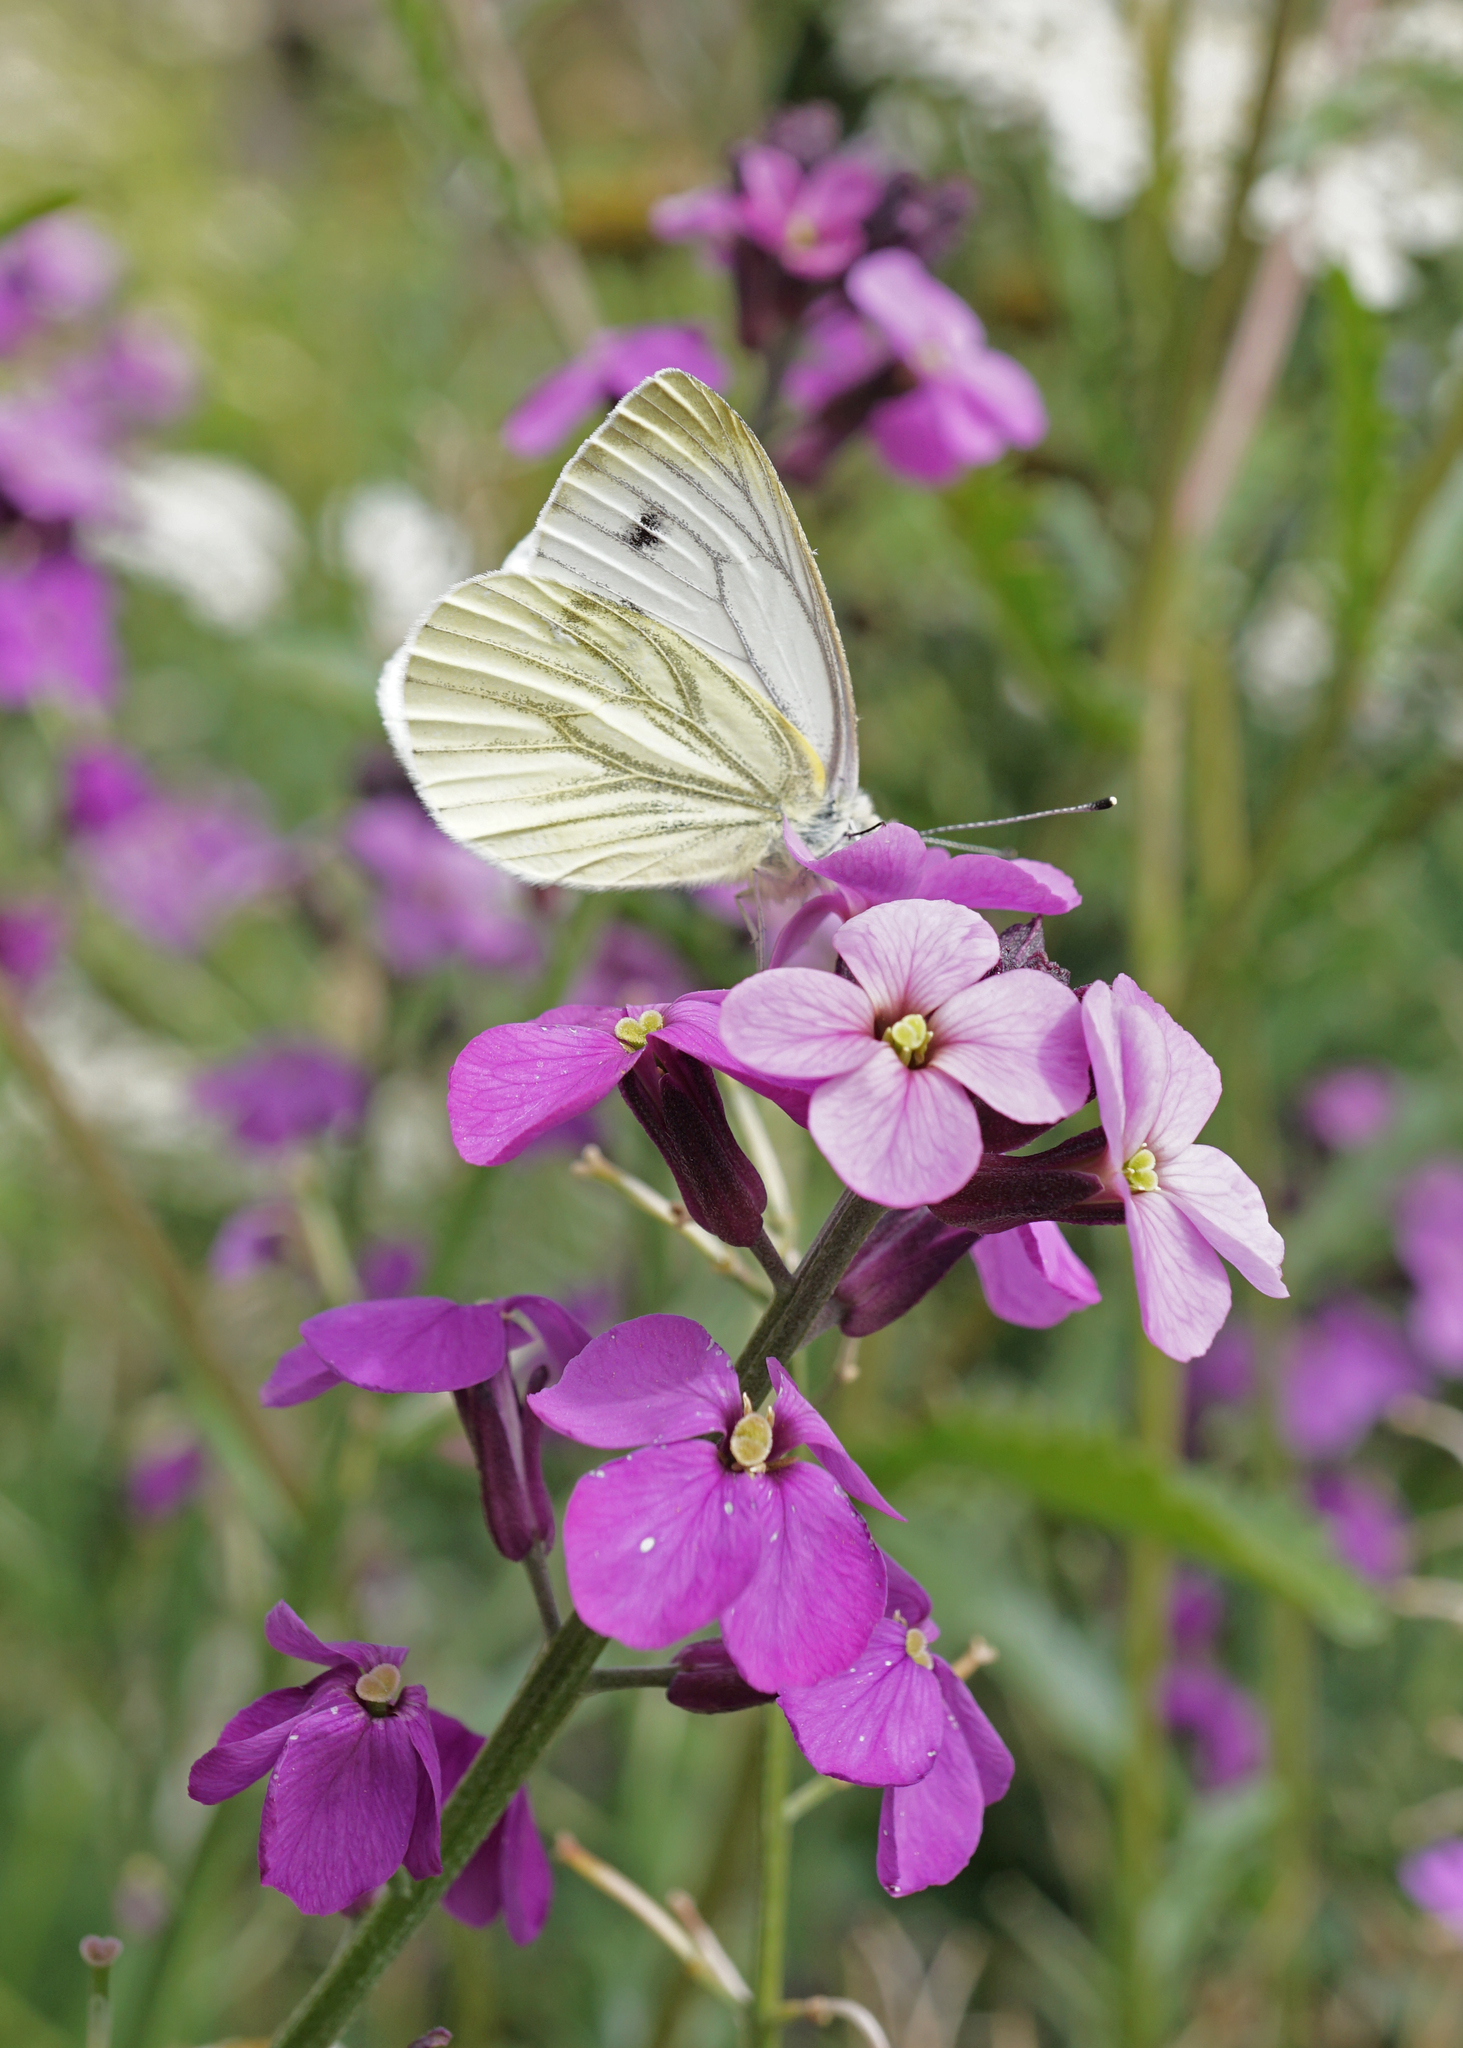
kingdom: Animalia
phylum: Arthropoda
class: Insecta
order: Lepidoptera
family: Pieridae
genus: Pieris
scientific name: Pieris napi
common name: Green-veined white
